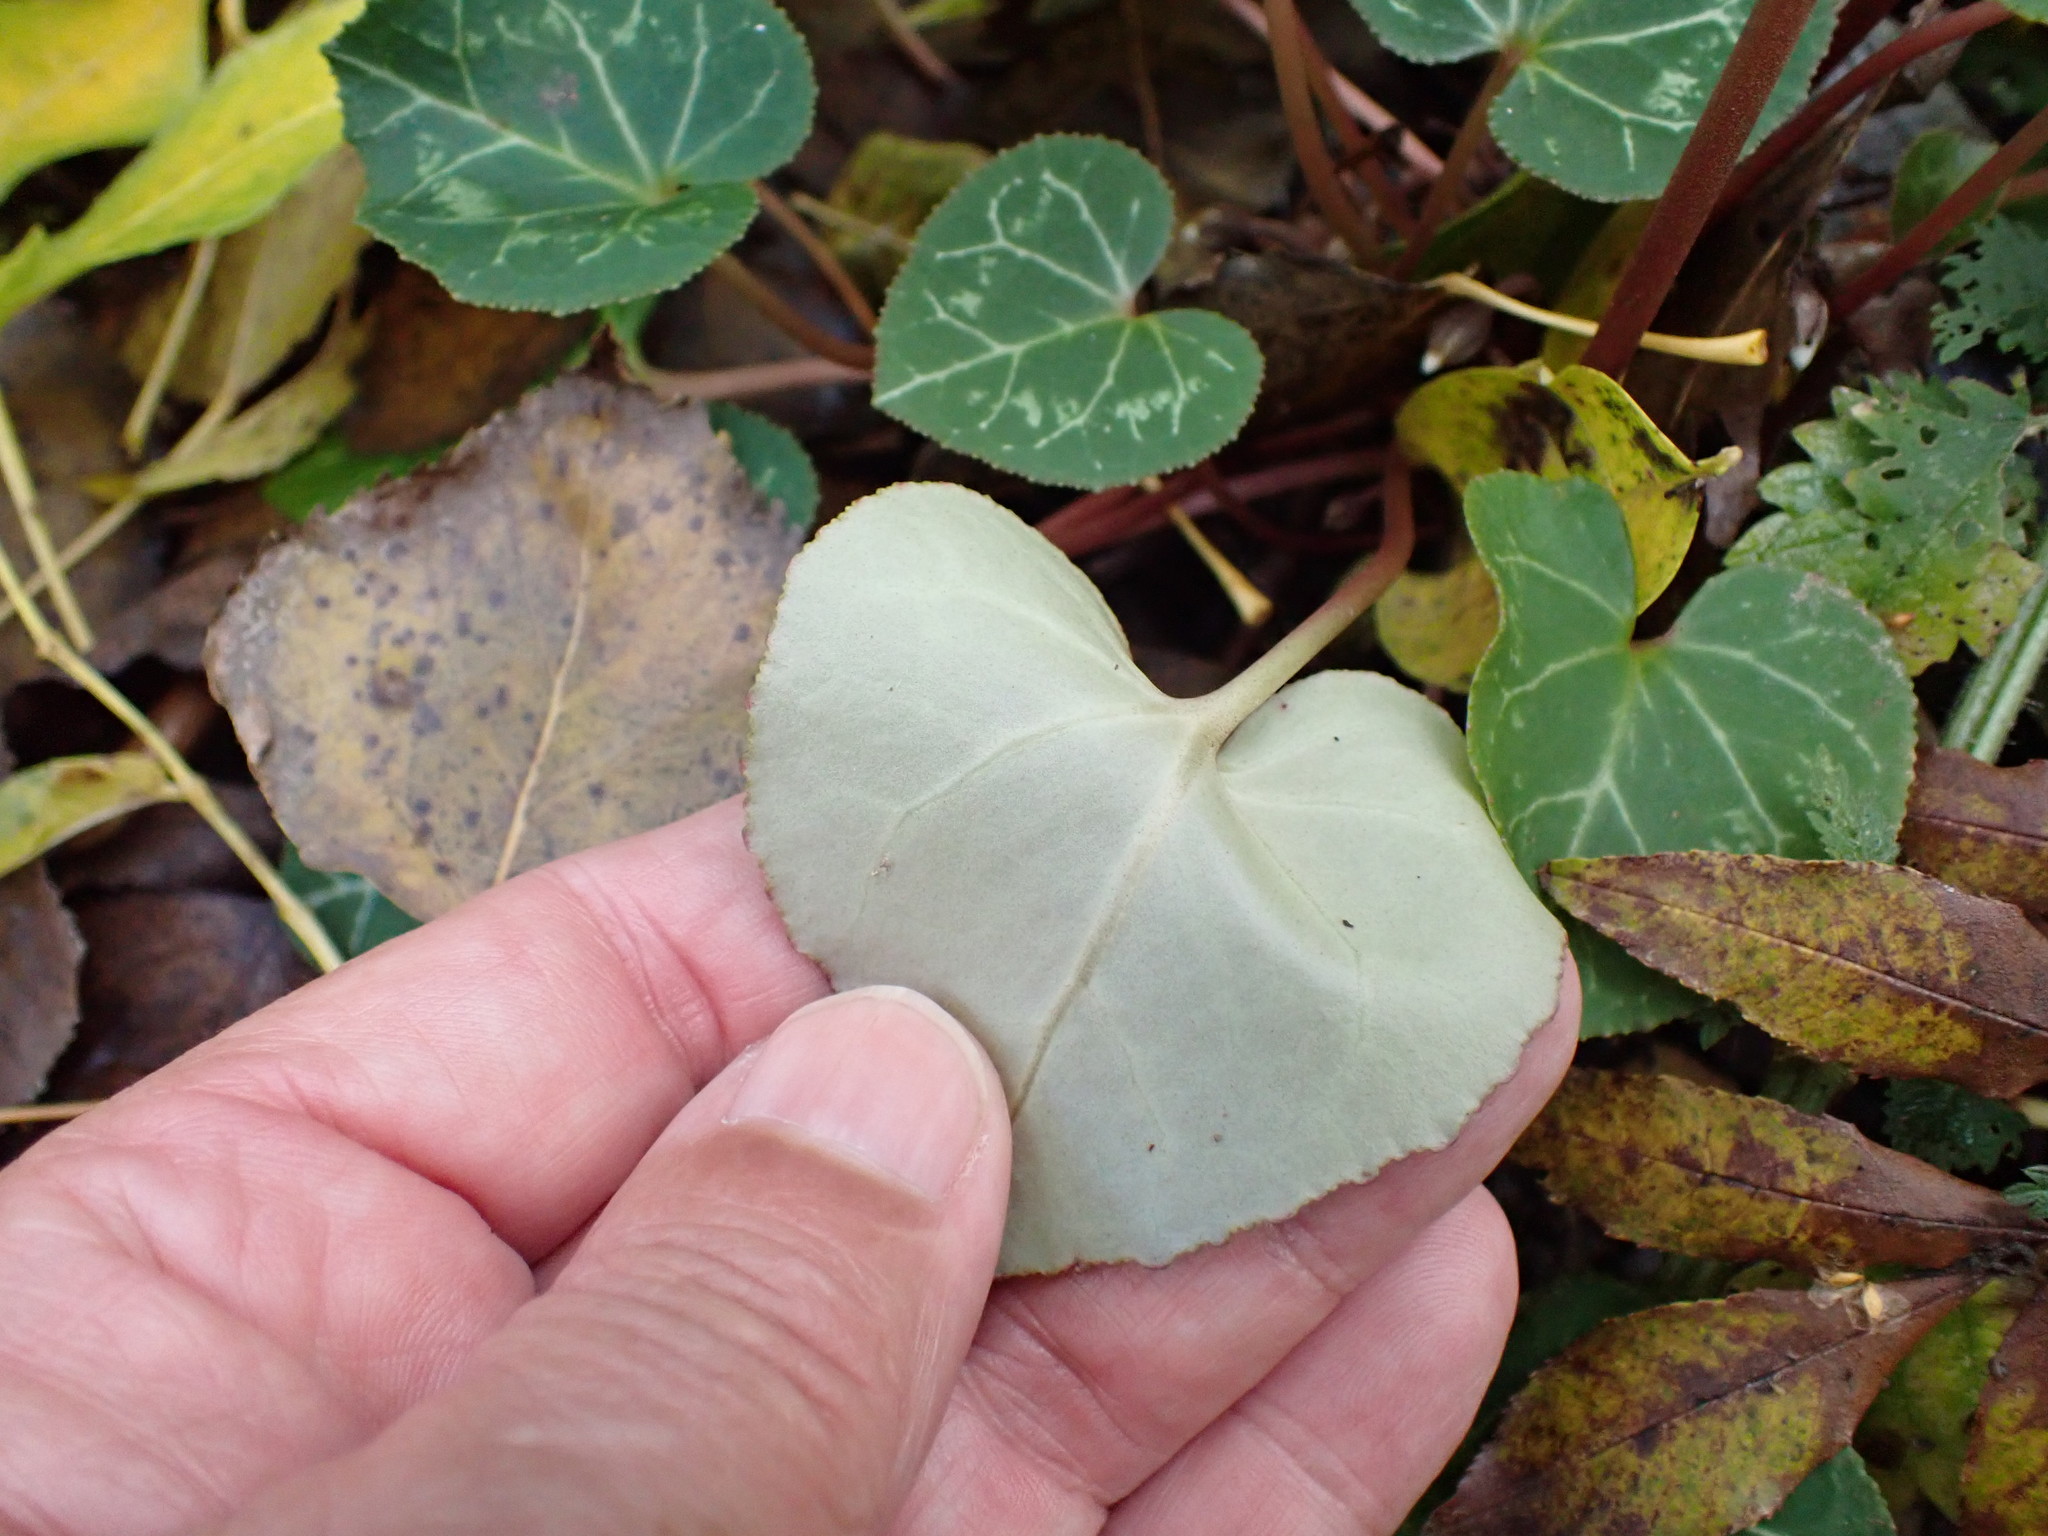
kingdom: Plantae
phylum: Tracheophyta
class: Magnoliopsida
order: Ericales
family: Primulaceae
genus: Cyclamen
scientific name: Cyclamen persicum
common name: Florist's cyclamen
